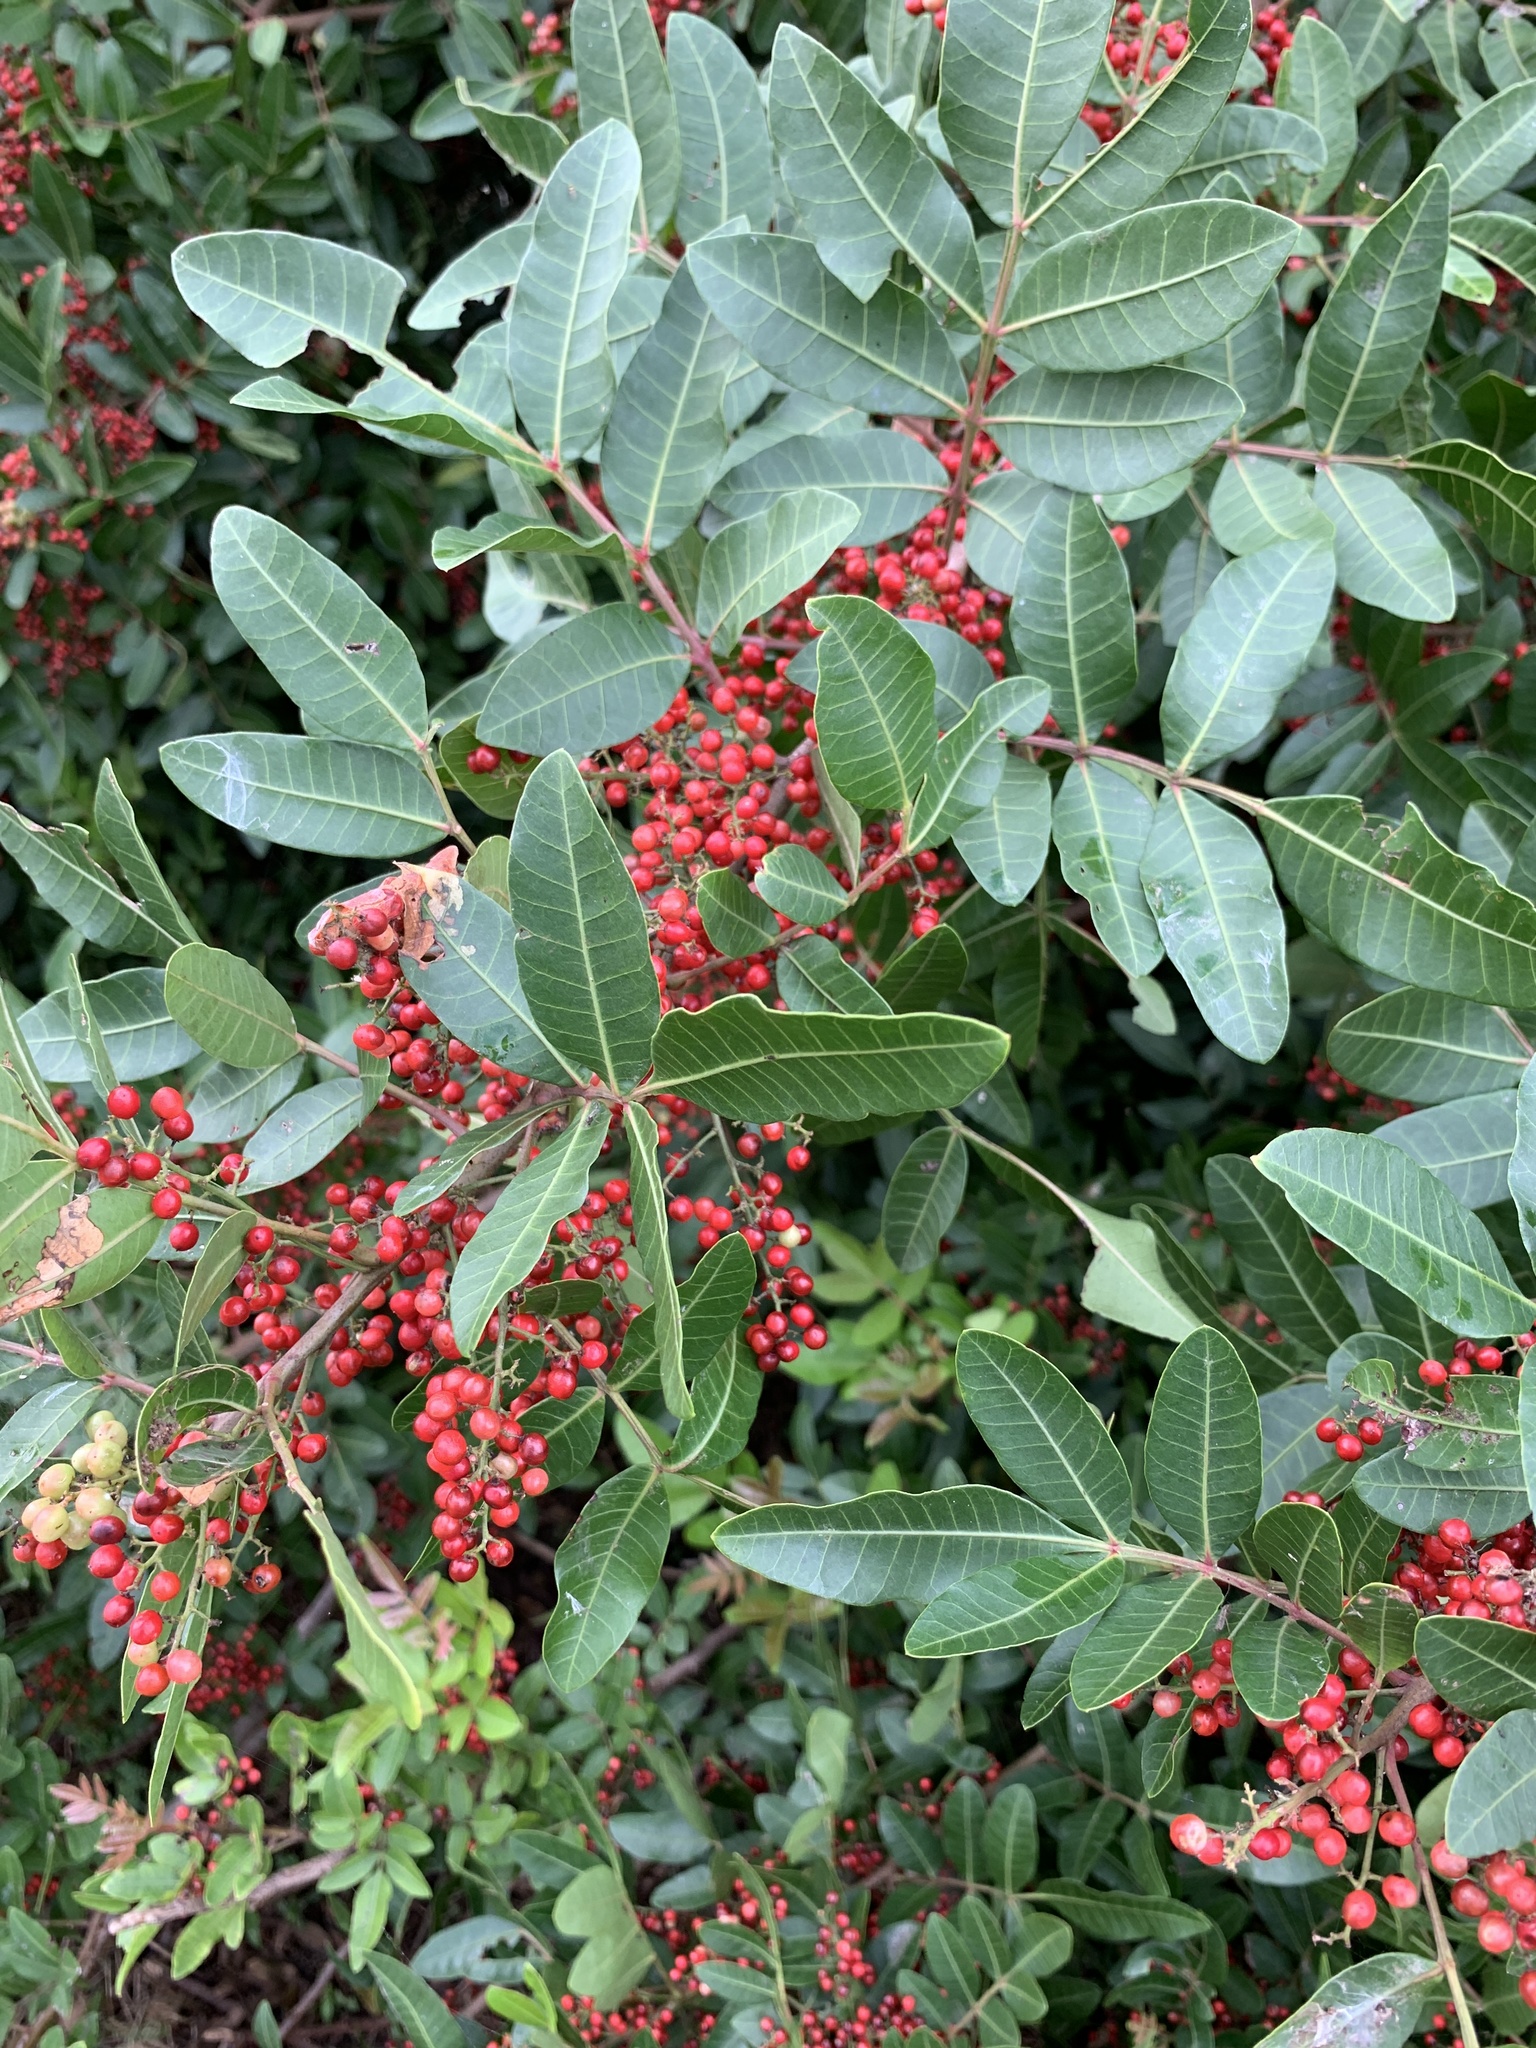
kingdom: Plantae
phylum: Tracheophyta
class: Magnoliopsida
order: Sapindales
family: Anacardiaceae
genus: Schinus
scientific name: Schinus terebinthifolia
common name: Brazilian peppertree
